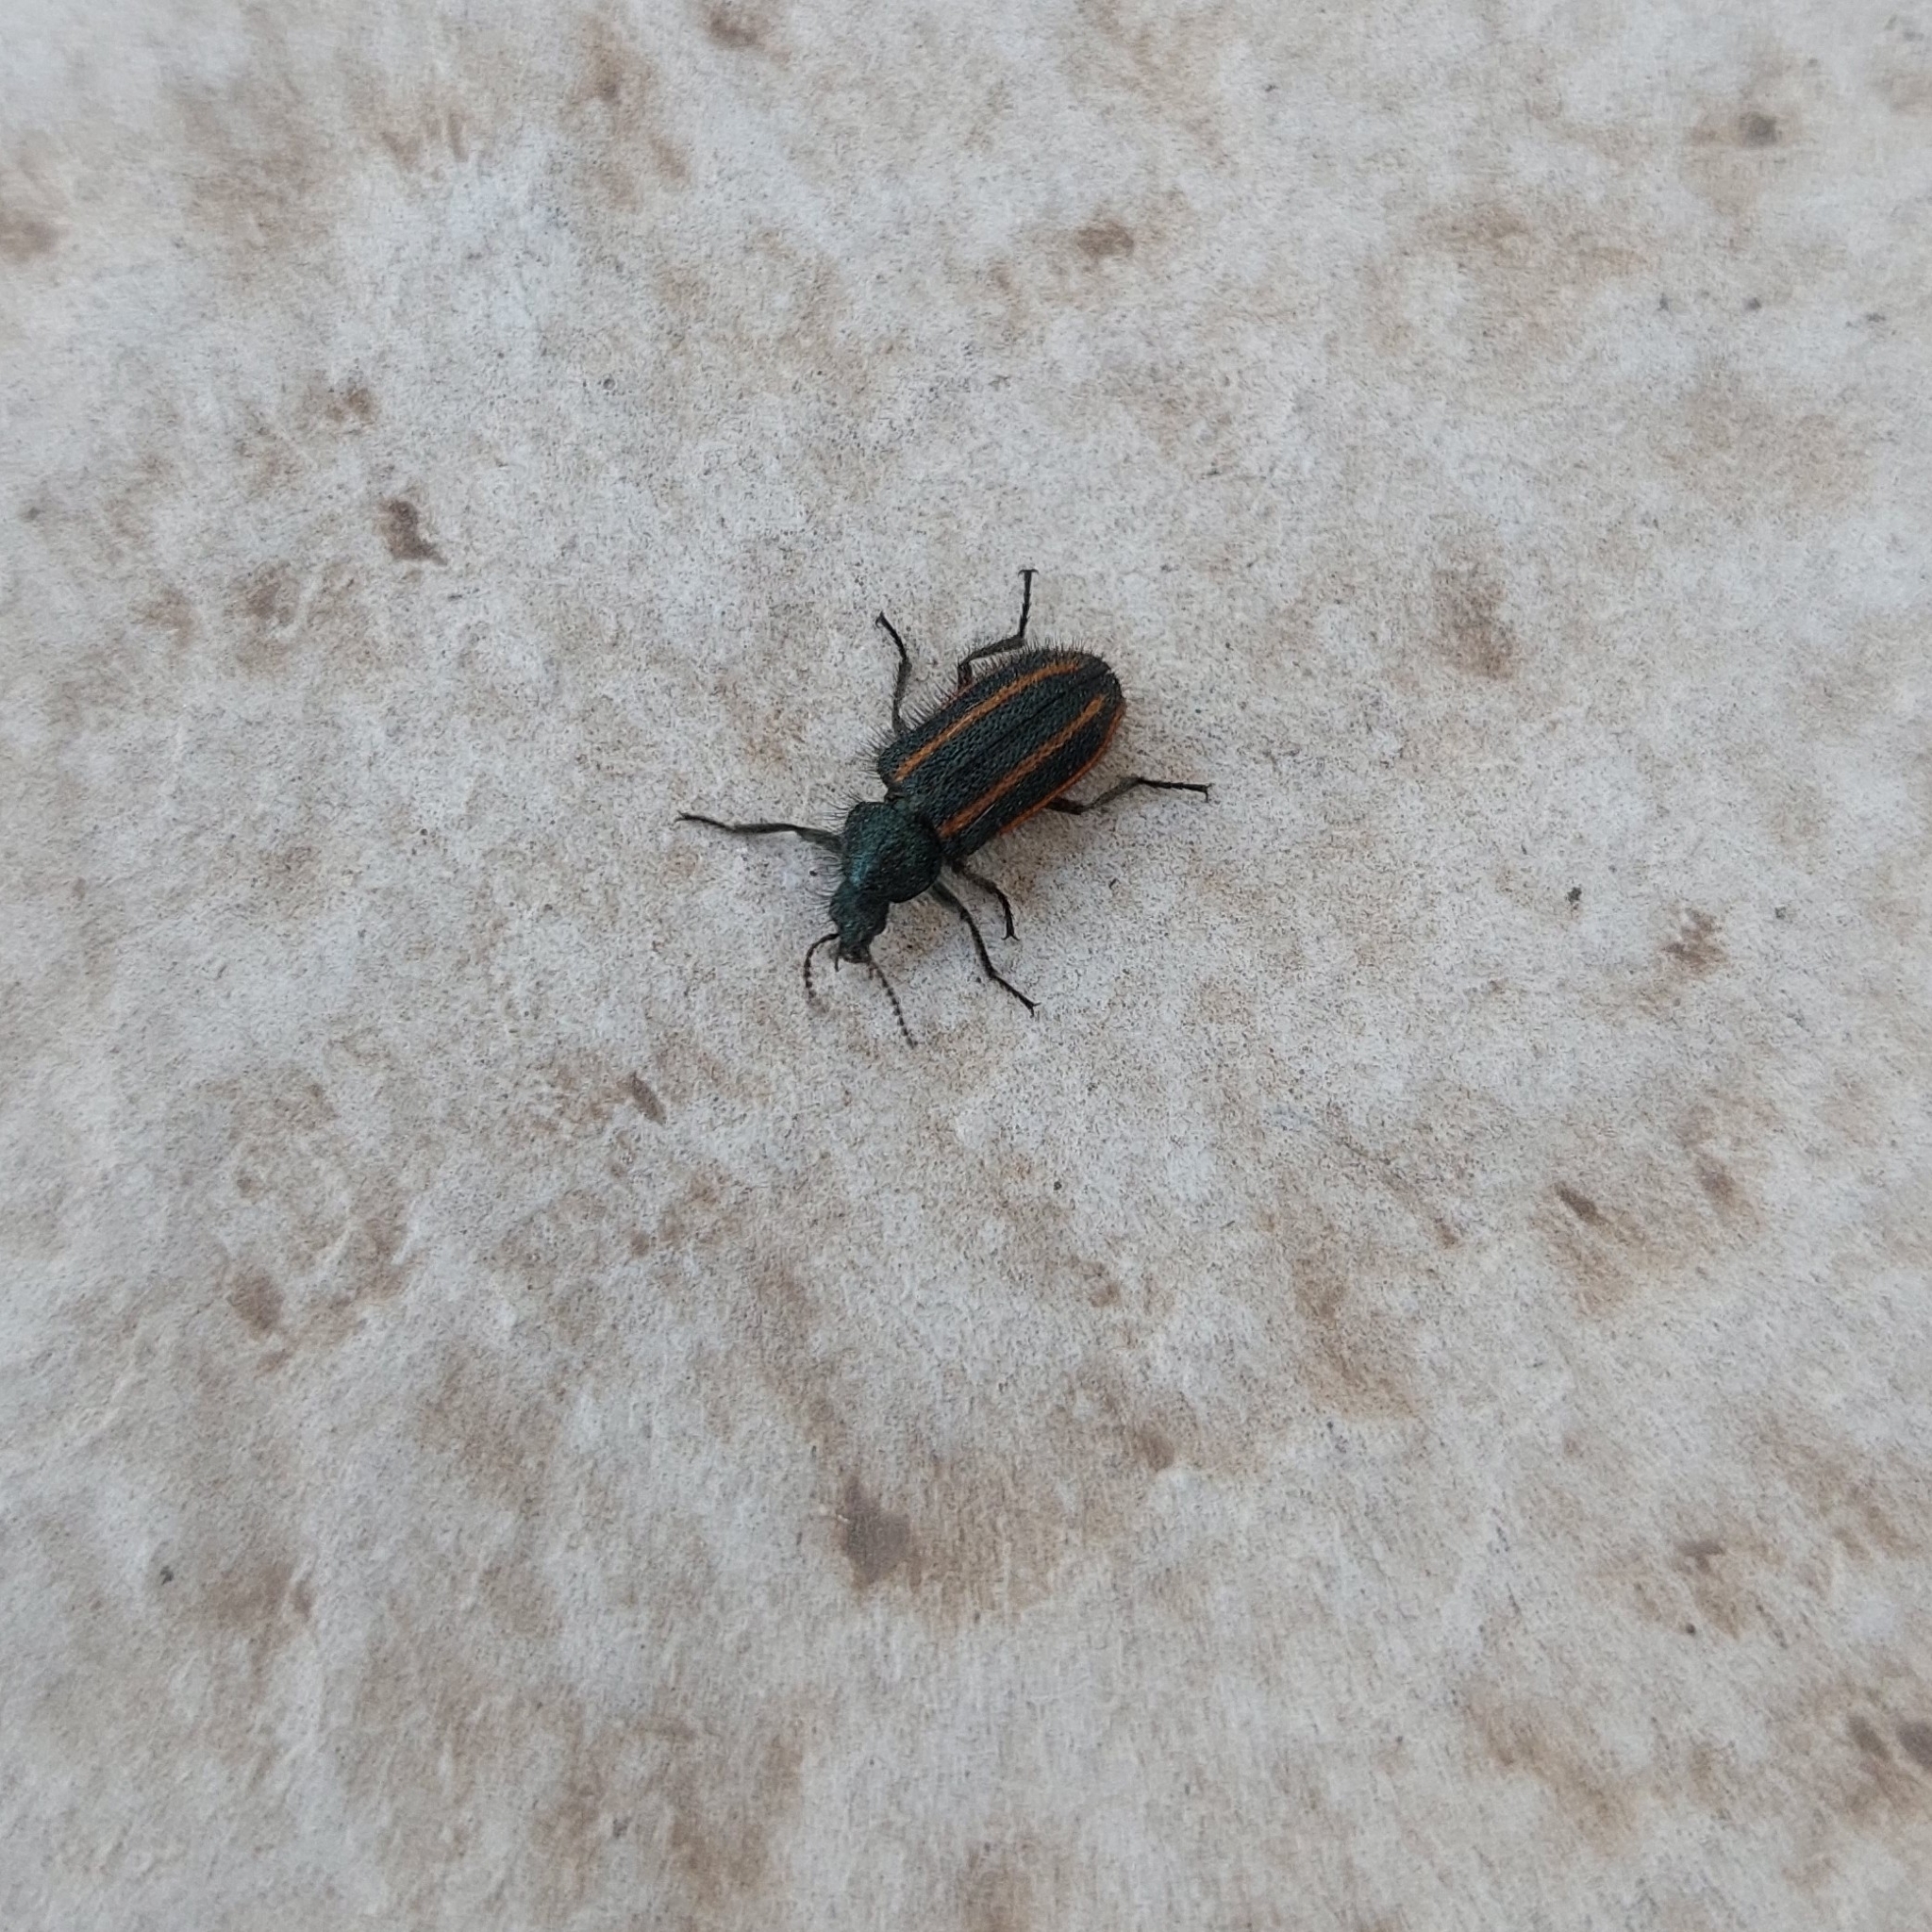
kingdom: Animalia
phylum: Arthropoda
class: Insecta
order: Coleoptera
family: Melyridae
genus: Astylus
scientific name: Astylus
